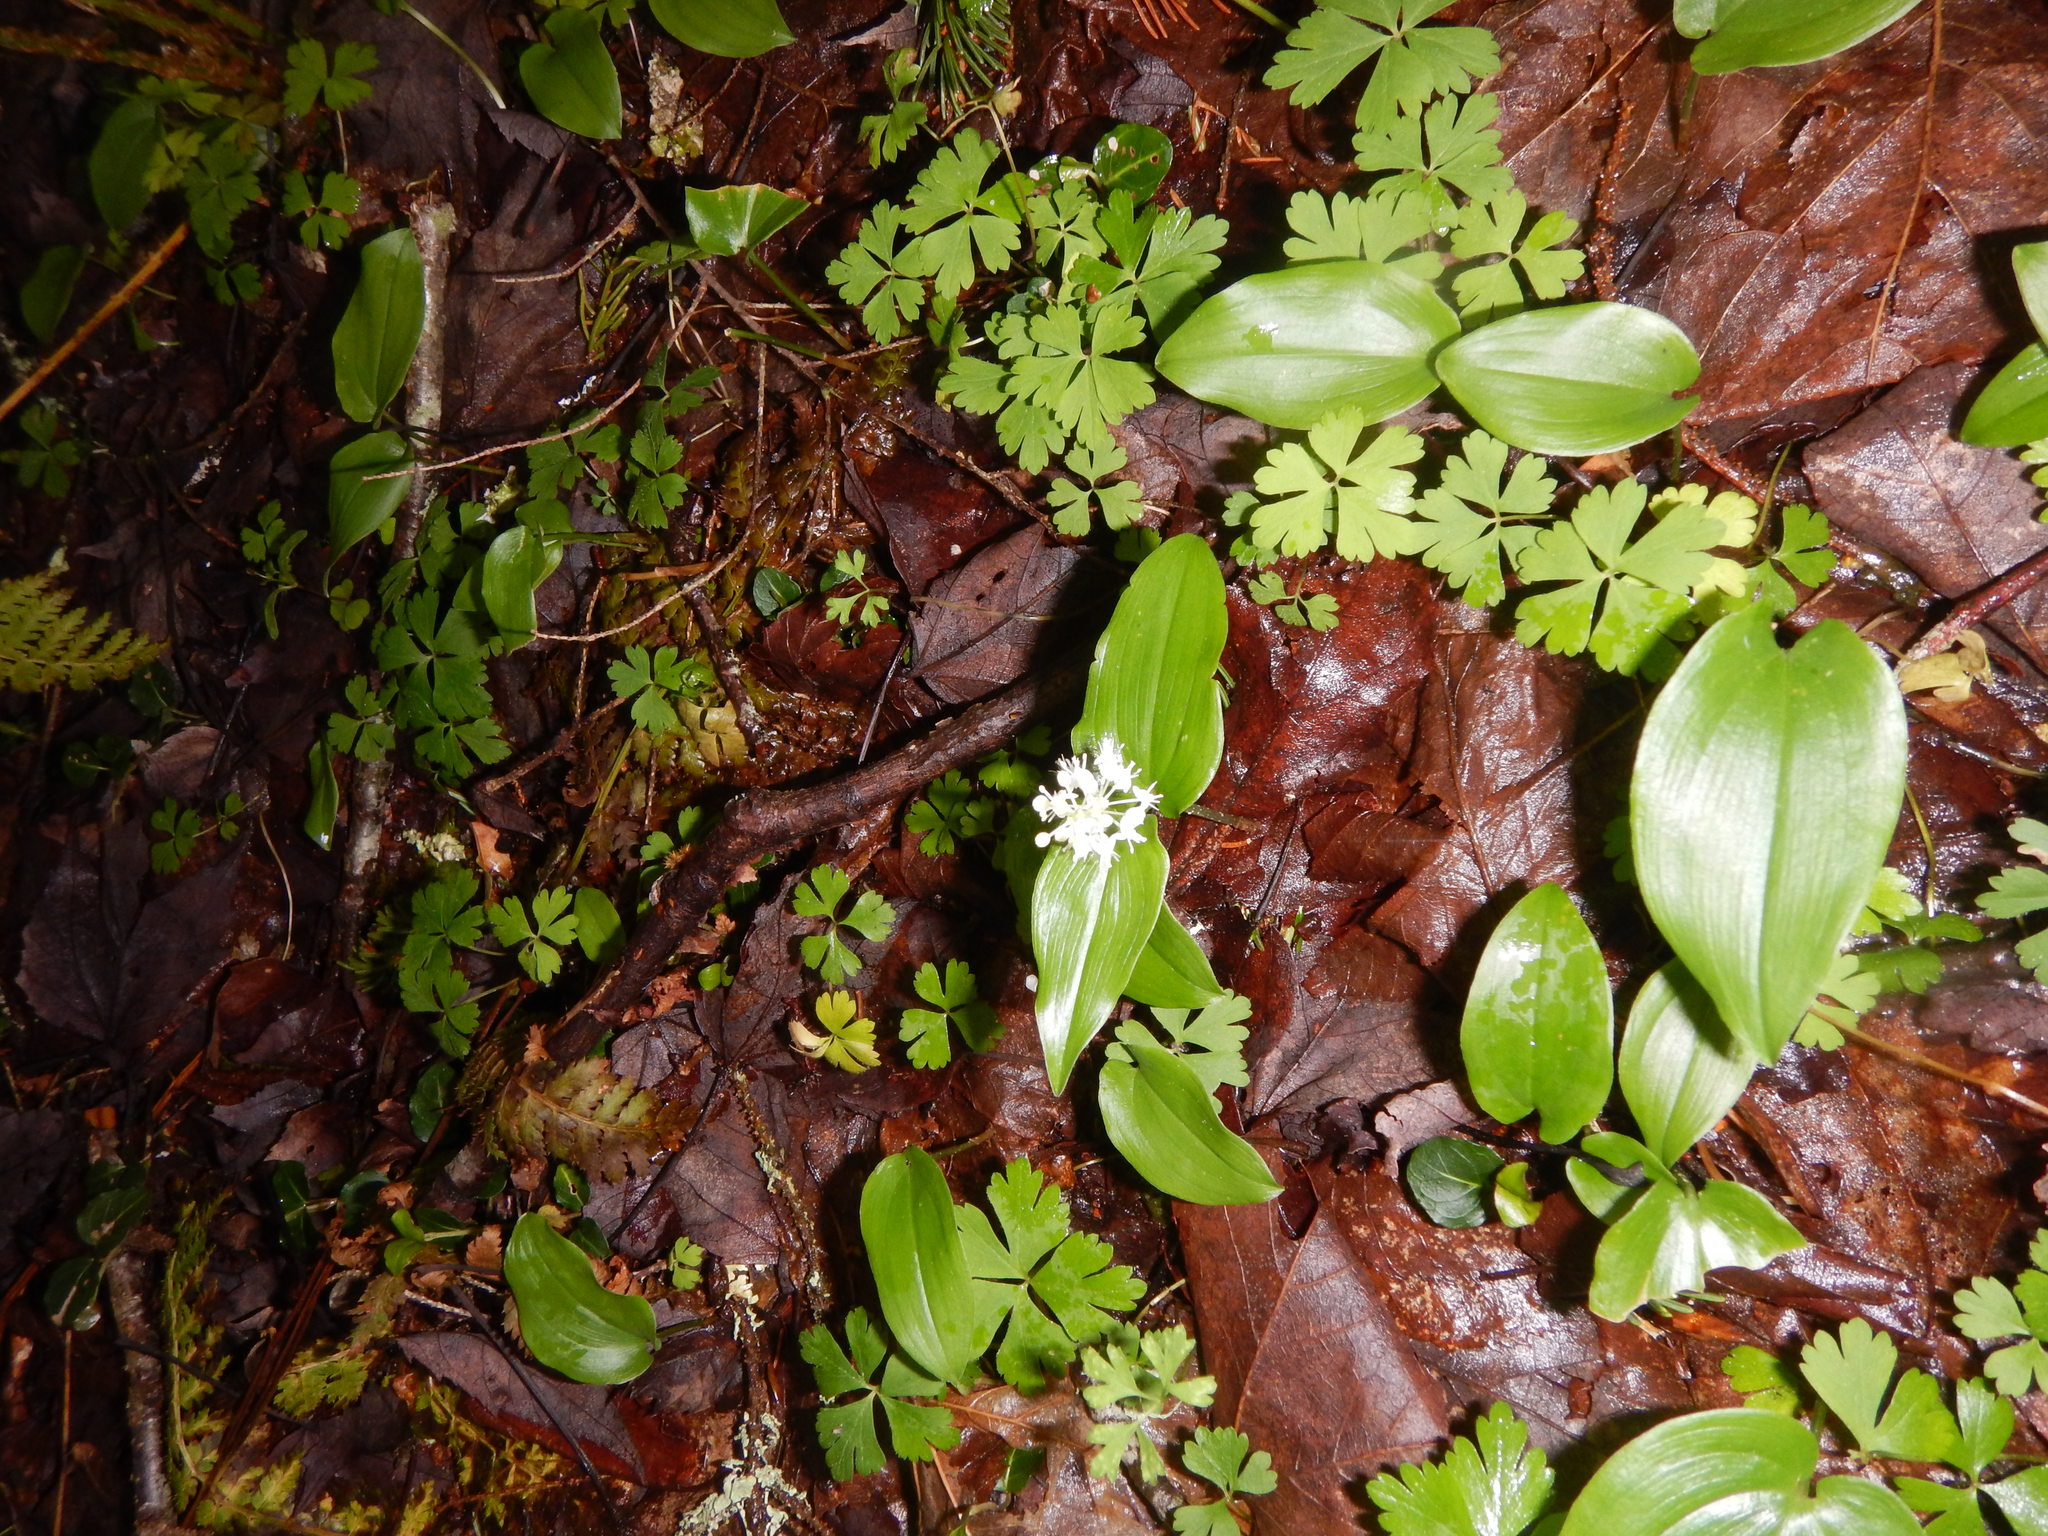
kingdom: Plantae
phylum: Tracheophyta
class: Liliopsida
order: Asparagales
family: Asparagaceae
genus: Maianthemum
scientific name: Maianthemum canadense
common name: False lily-of-the-valley
